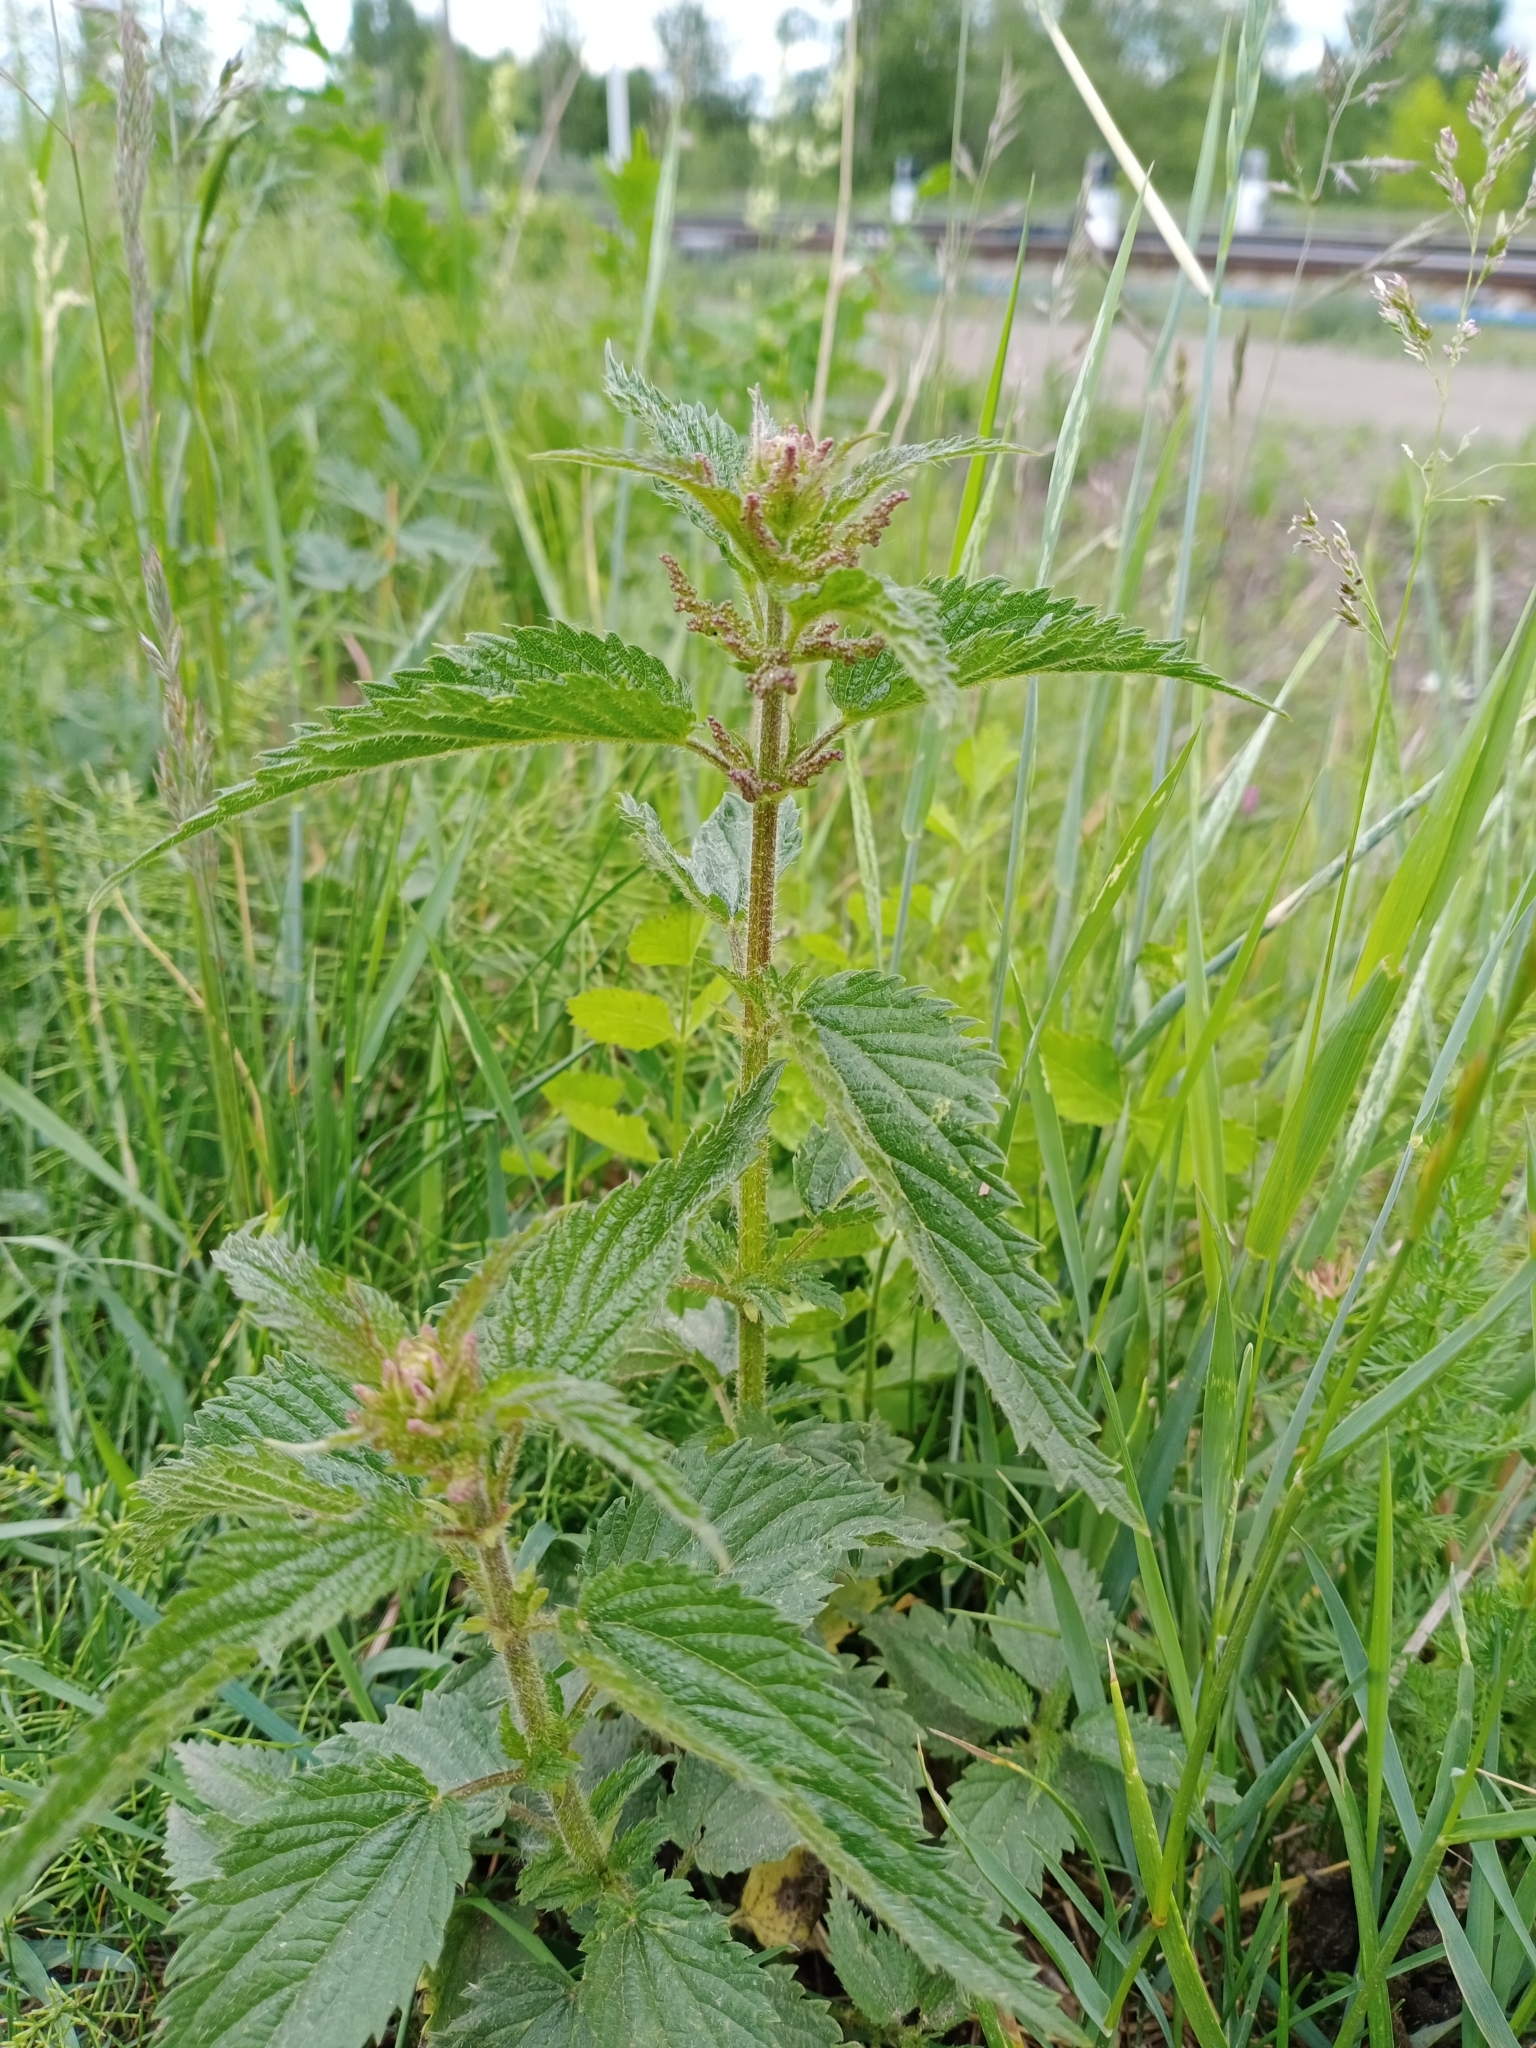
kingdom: Plantae
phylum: Tracheophyta
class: Magnoliopsida
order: Rosales
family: Urticaceae
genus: Urtica
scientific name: Urtica dioica
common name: Common nettle
